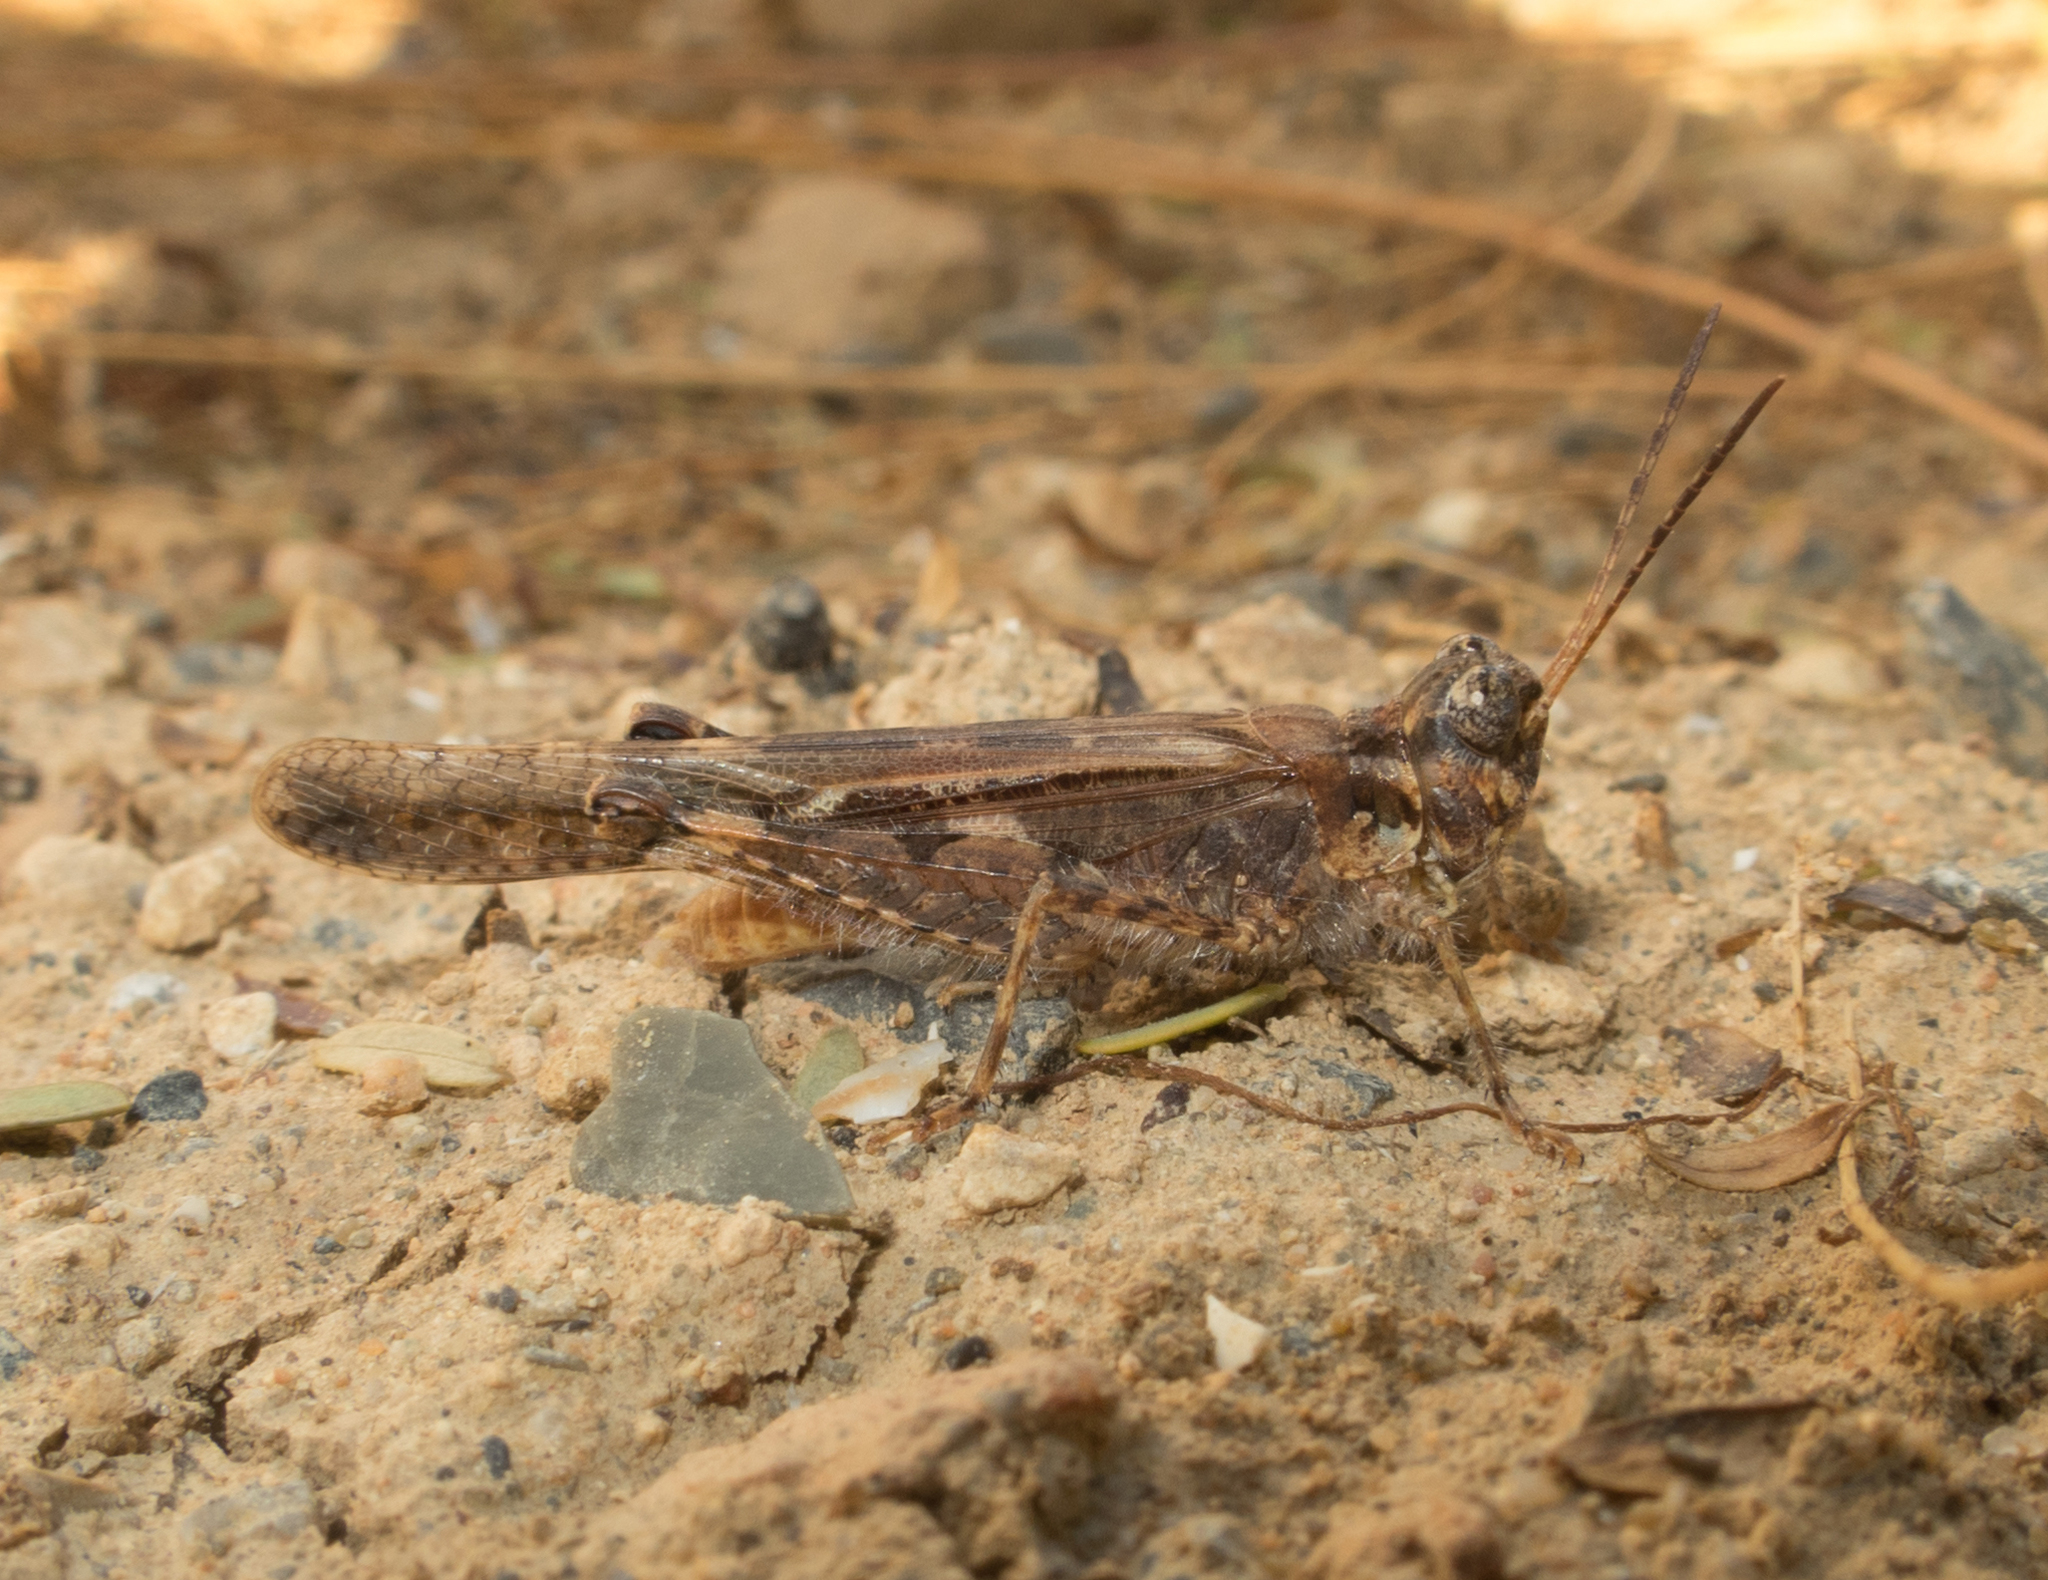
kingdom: Animalia
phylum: Arthropoda
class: Insecta
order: Orthoptera
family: Acrididae
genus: Acrotylus
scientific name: Acrotylus patruelis
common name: Slender burrowing grasshopper
